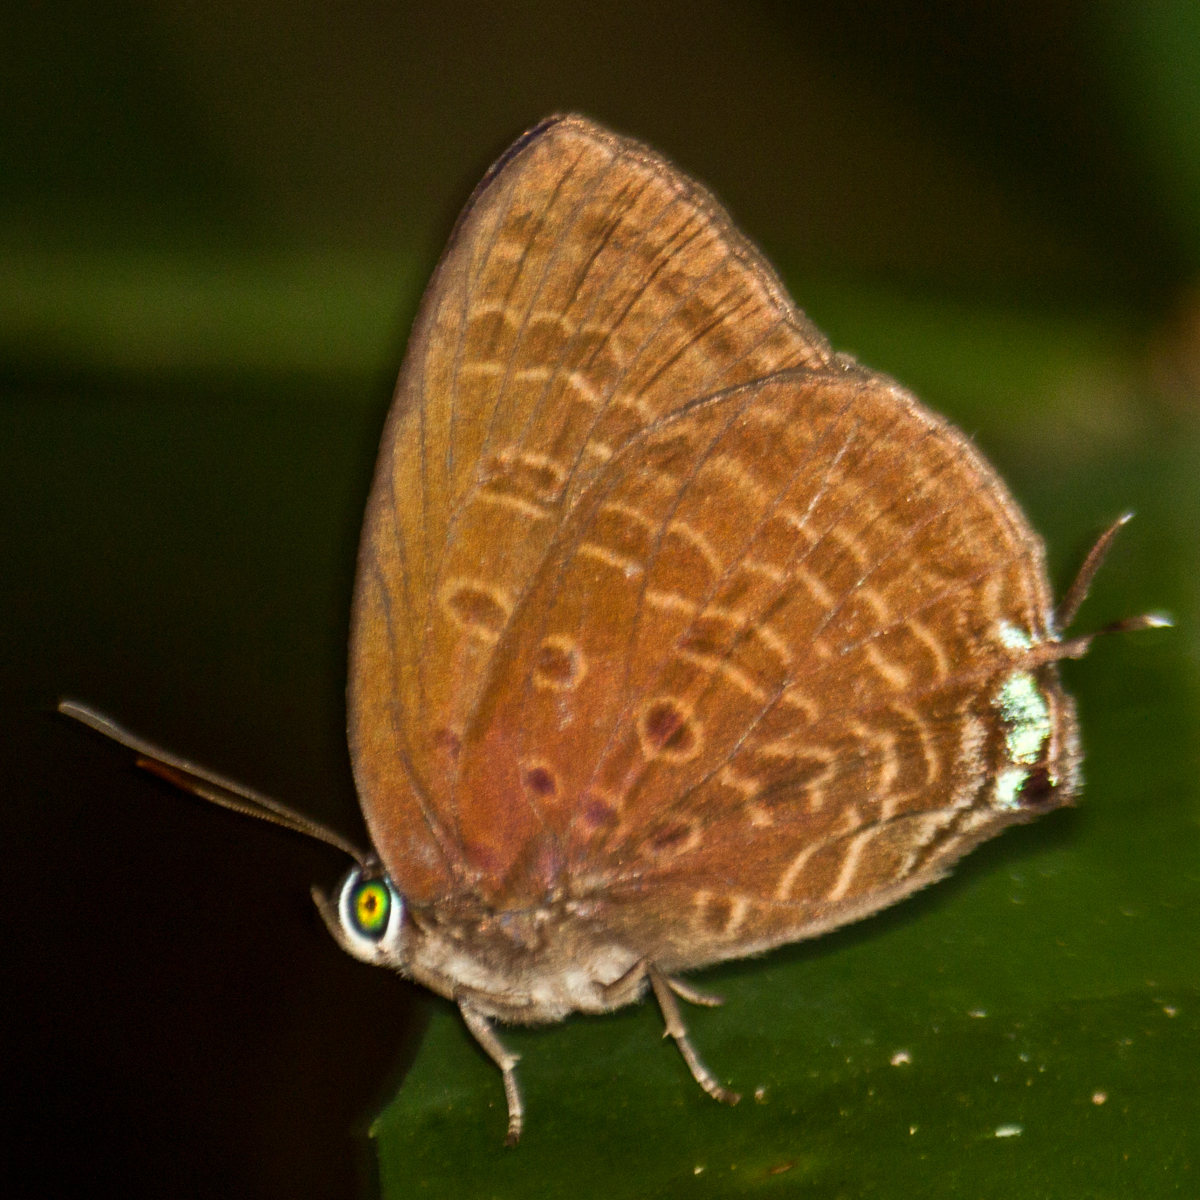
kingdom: Animalia
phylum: Arthropoda
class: Insecta
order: Lepidoptera
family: Lycaenidae
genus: Arhopala
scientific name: Arhopala agrata
